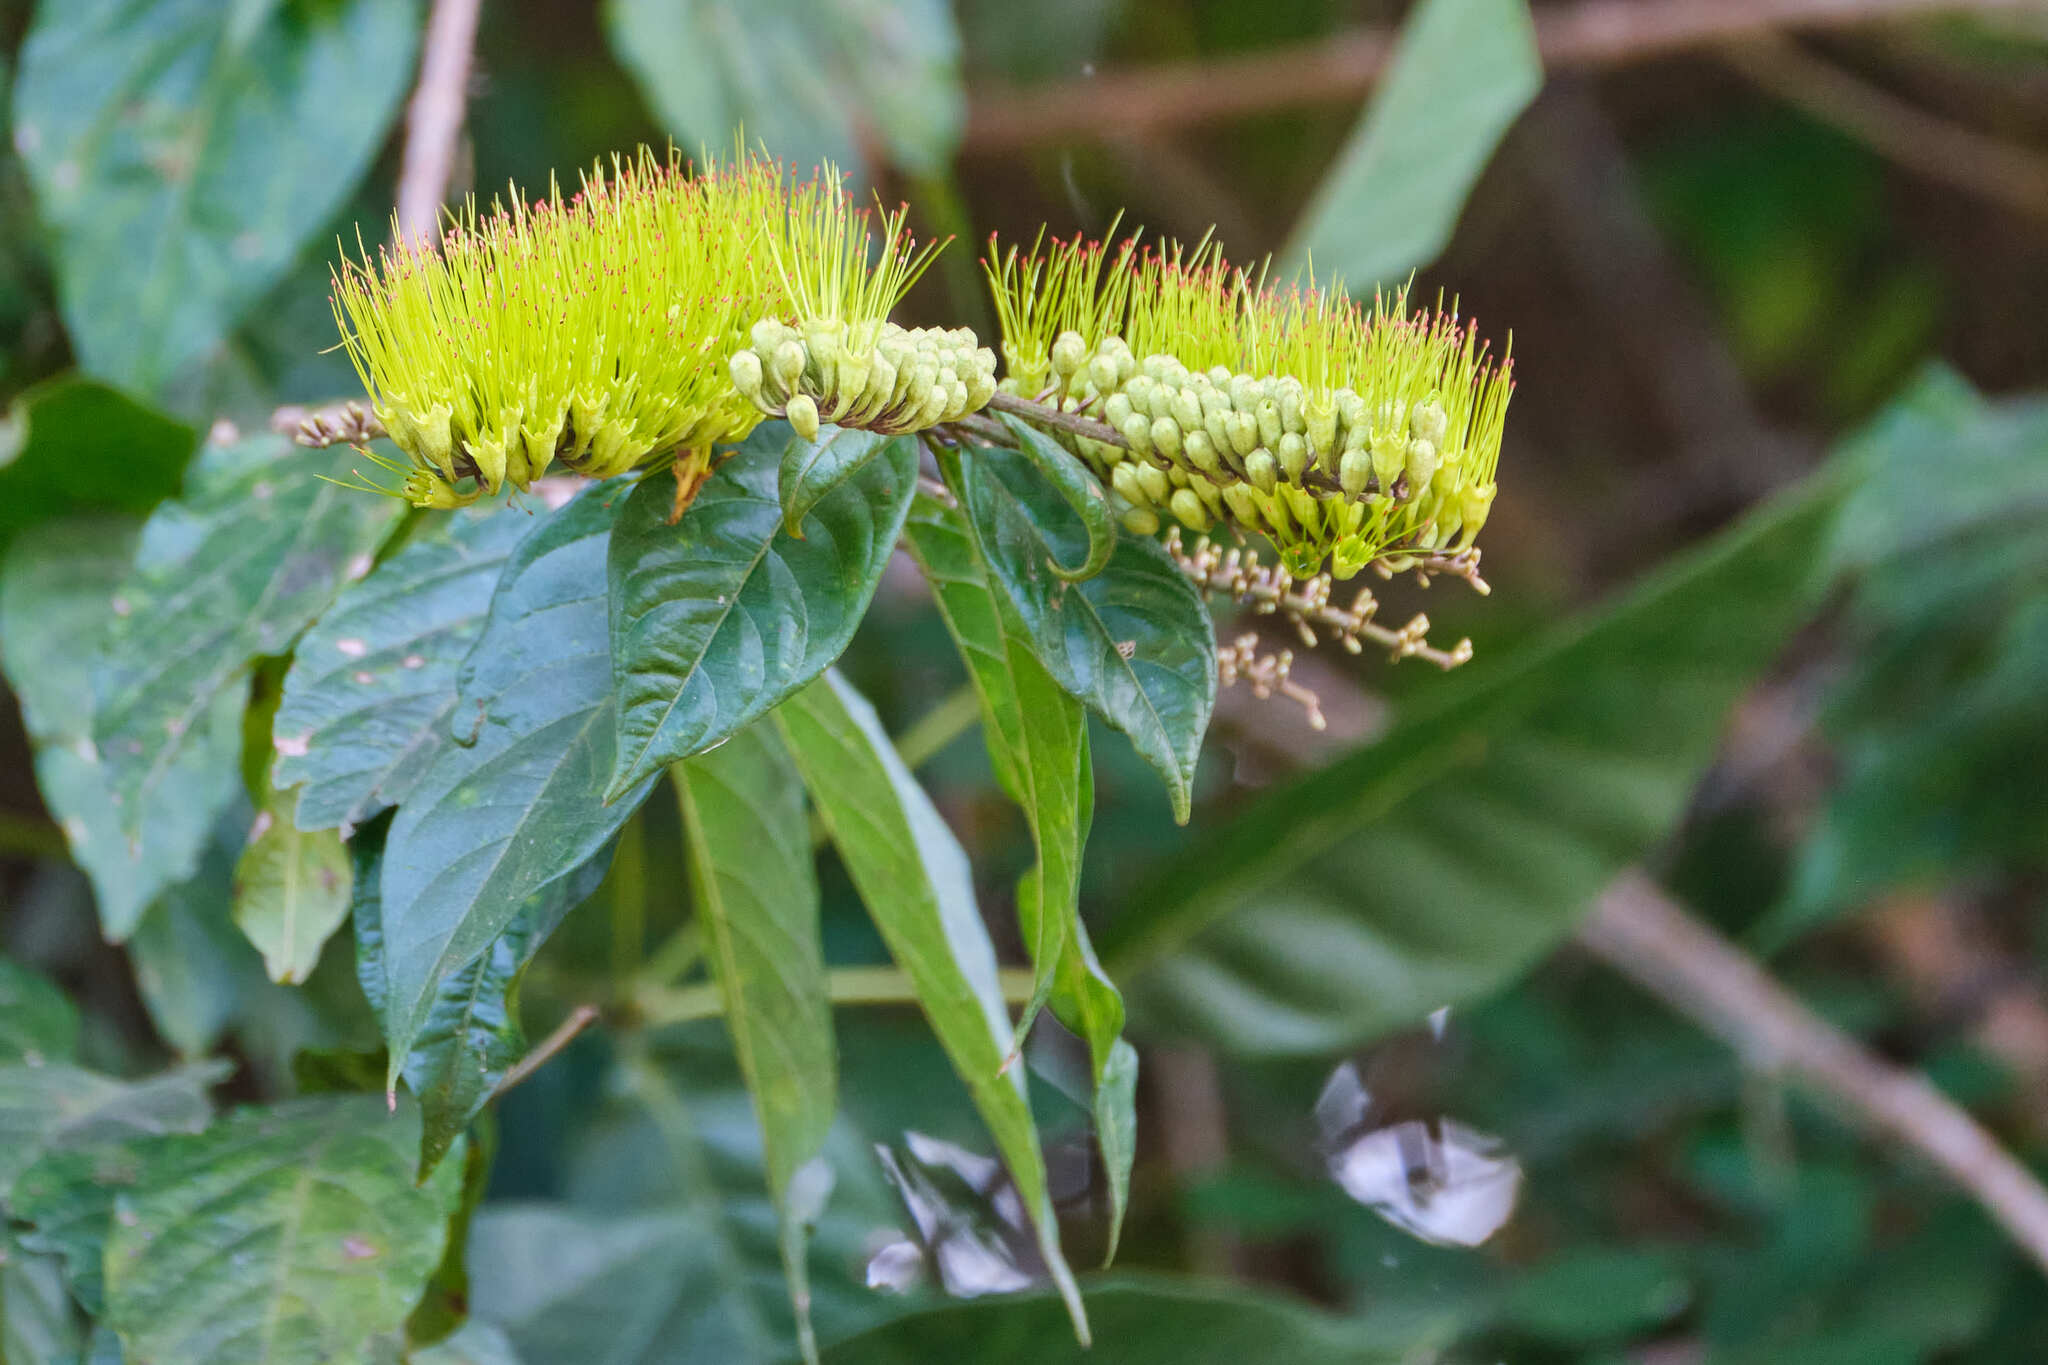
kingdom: Plantae
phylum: Tracheophyta
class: Magnoliopsida
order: Myrtales
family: Combretaceae
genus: Combretum
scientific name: Combretum fruticosum
